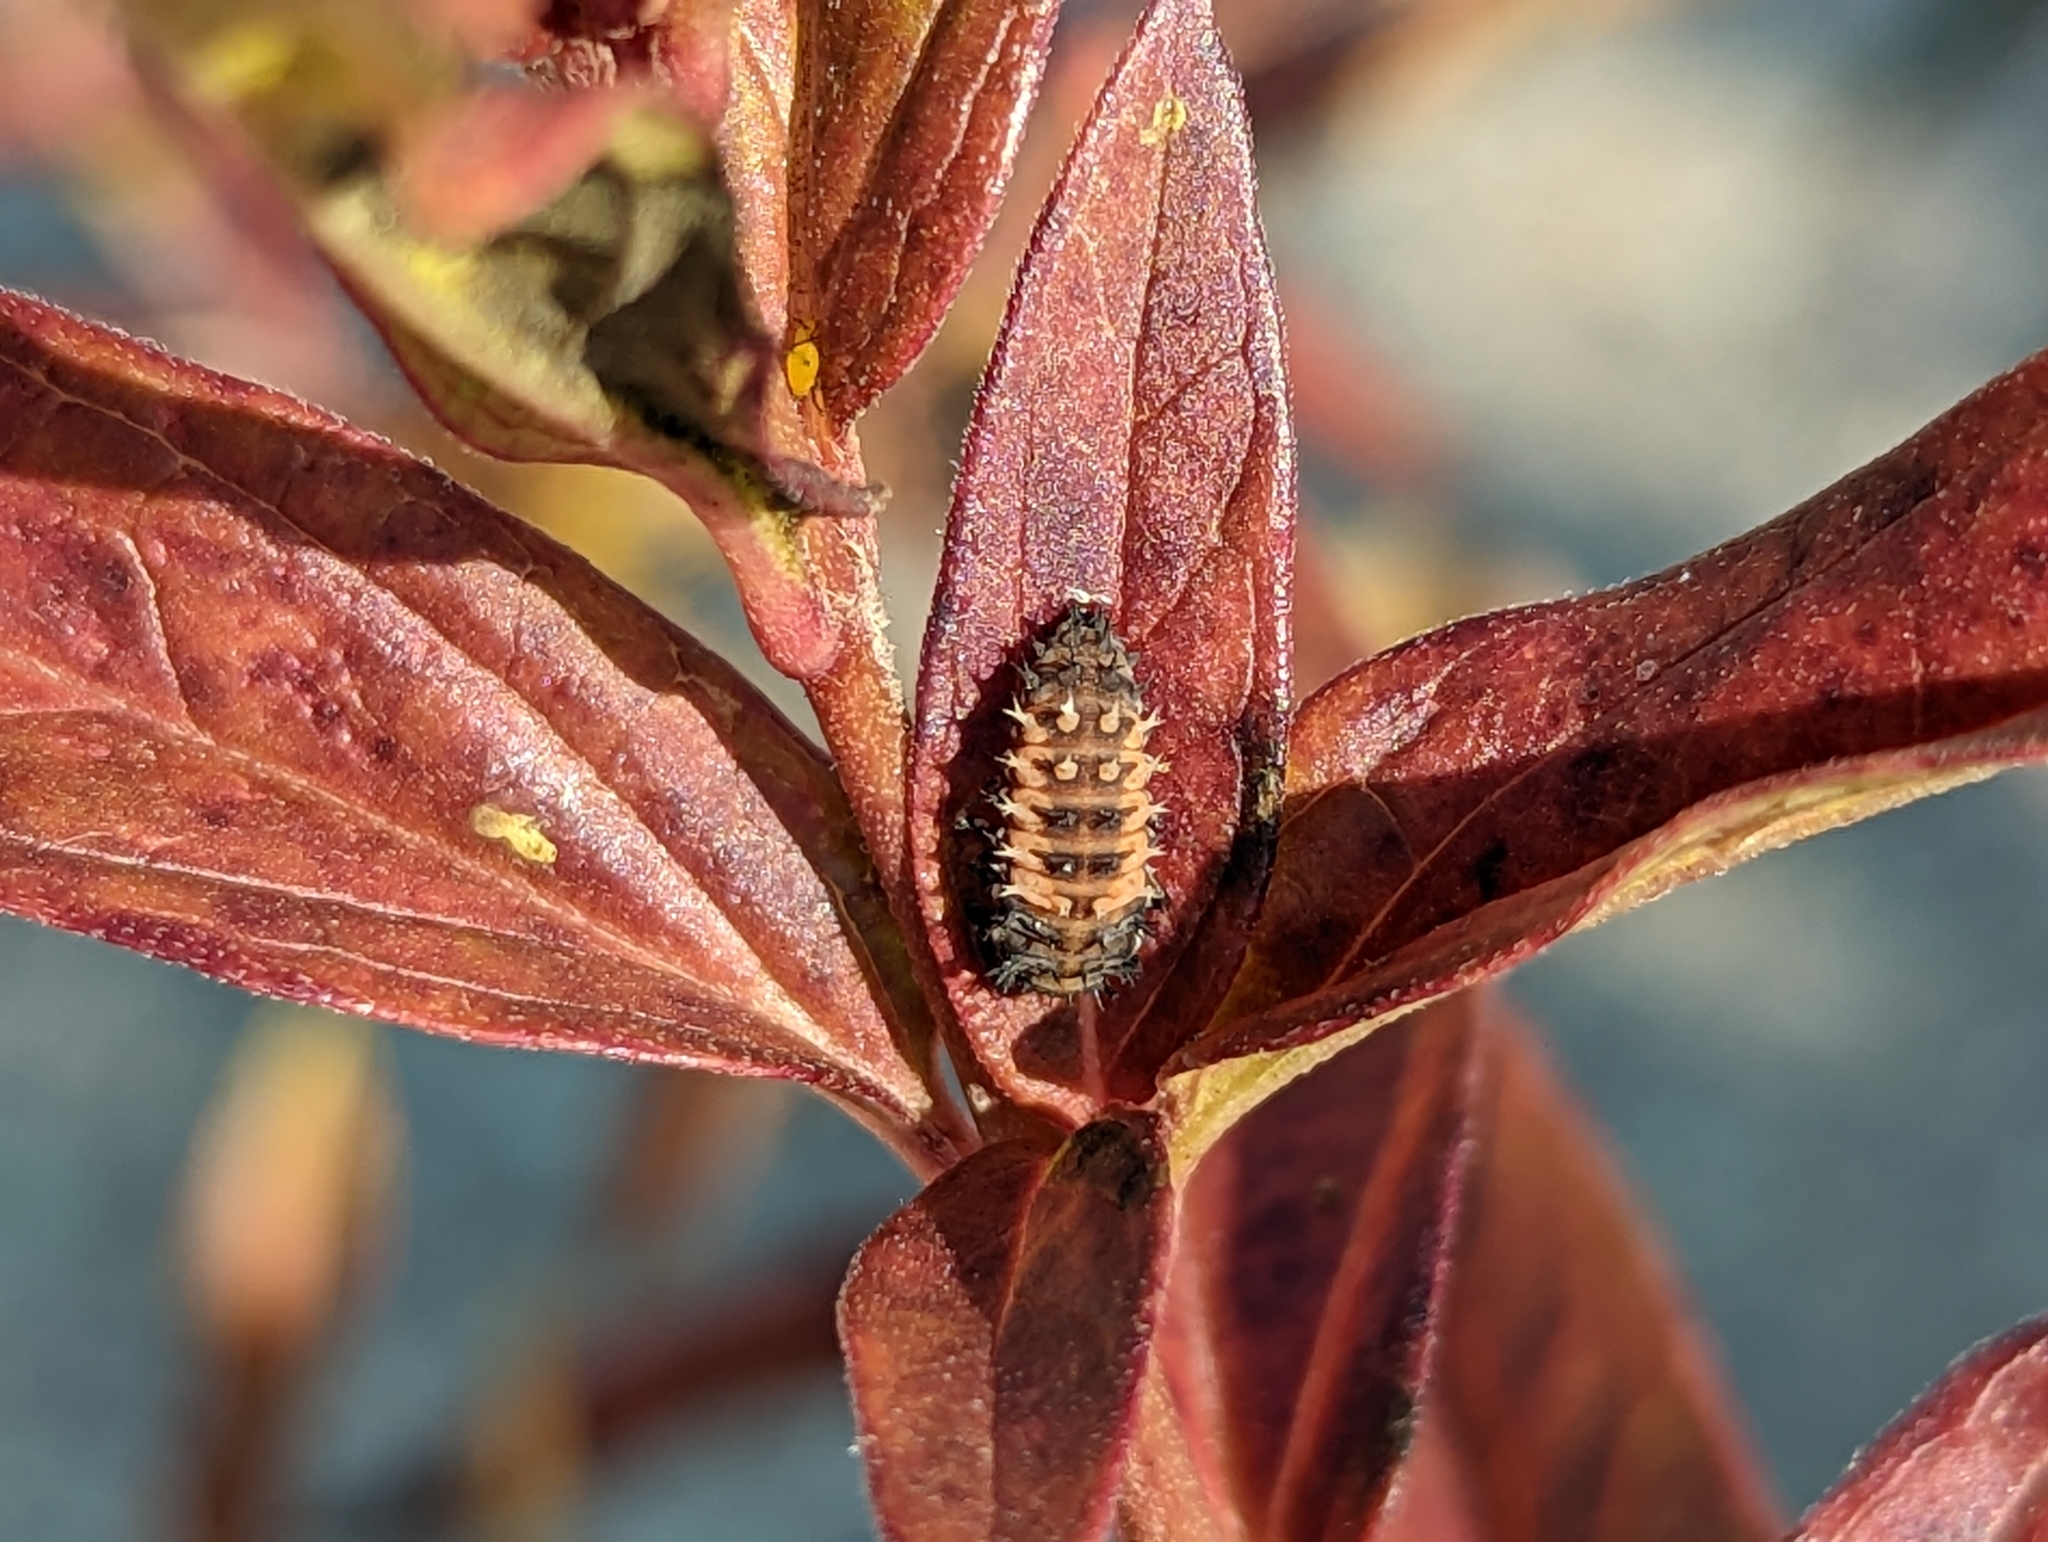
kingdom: Animalia
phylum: Arthropoda
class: Insecta
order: Coleoptera
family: Coccinellidae
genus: Harmonia
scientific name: Harmonia axyridis
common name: Harlequin ladybird
